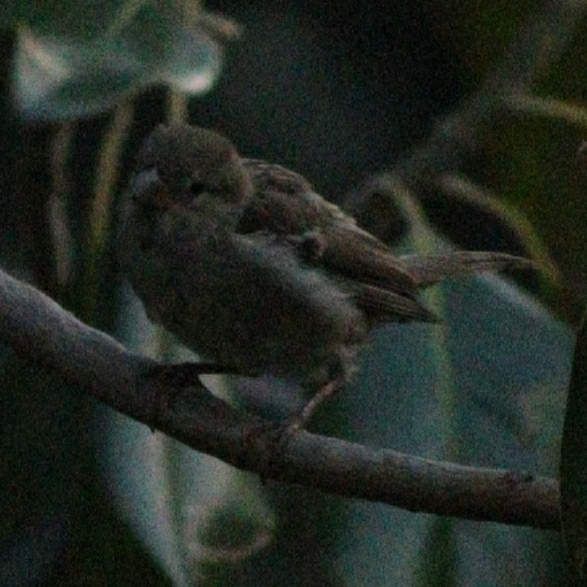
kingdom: Animalia
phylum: Chordata
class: Aves
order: Passeriformes
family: Passeridae
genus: Passer
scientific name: Passer domesticus
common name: House sparrow
